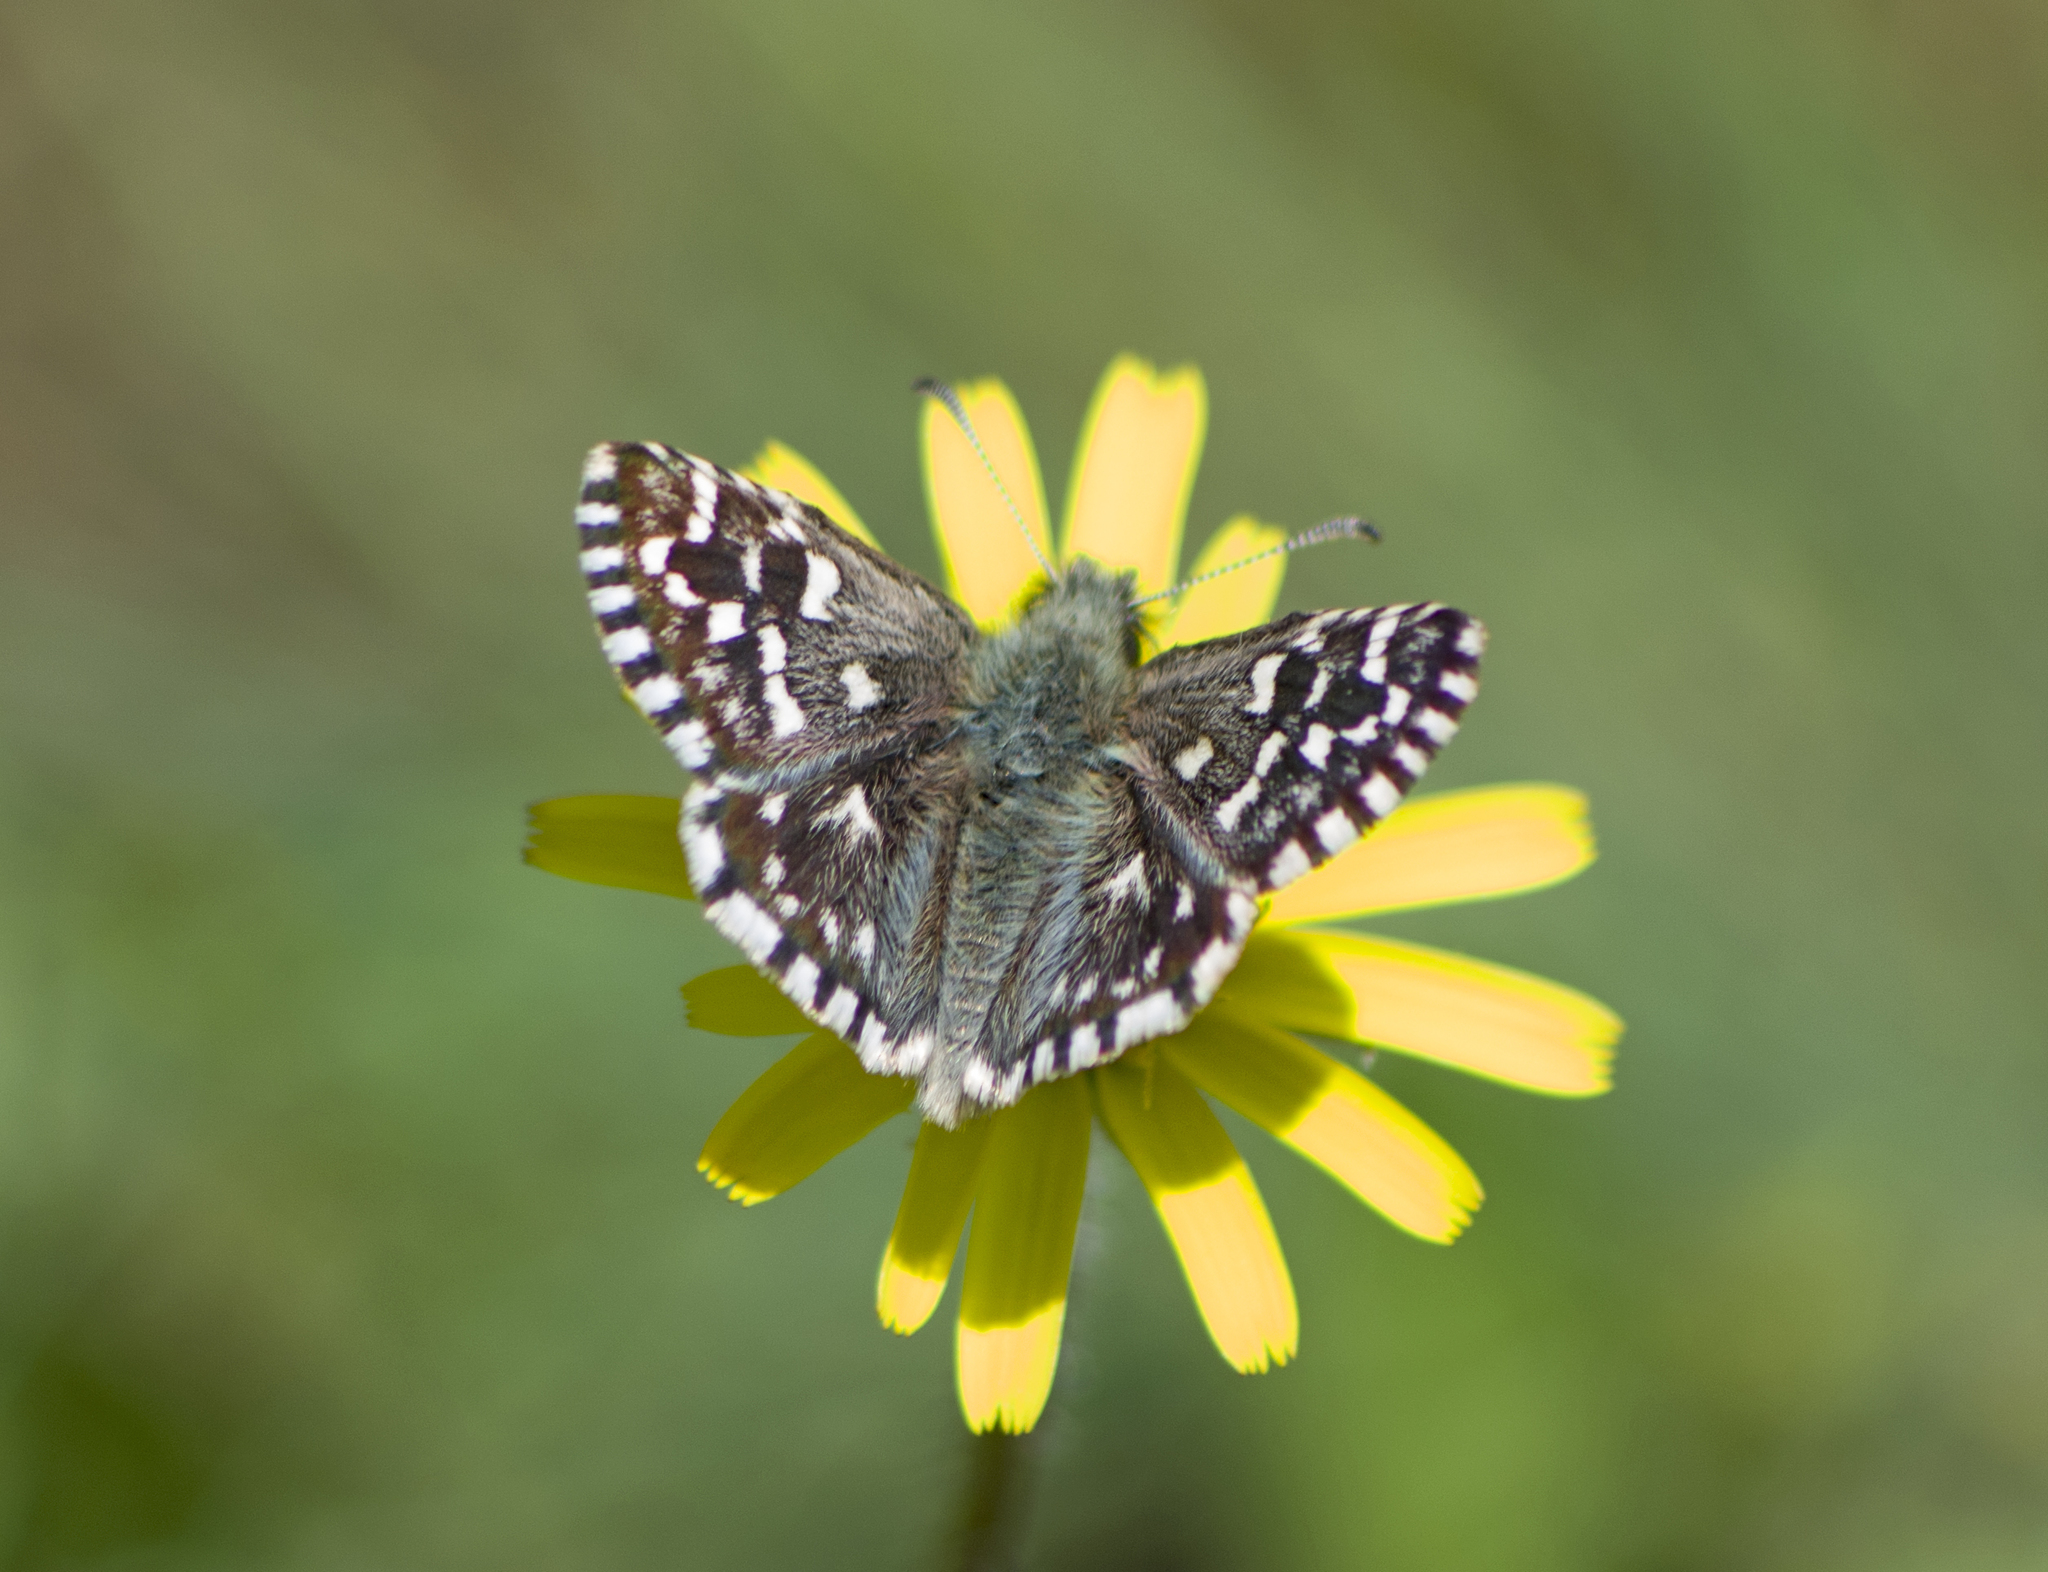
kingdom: Animalia
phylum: Arthropoda
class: Insecta
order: Lepidoptera
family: Hesperiidae
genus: Pyrgus
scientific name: Pyrgus malvae
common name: Grizzled skipper
